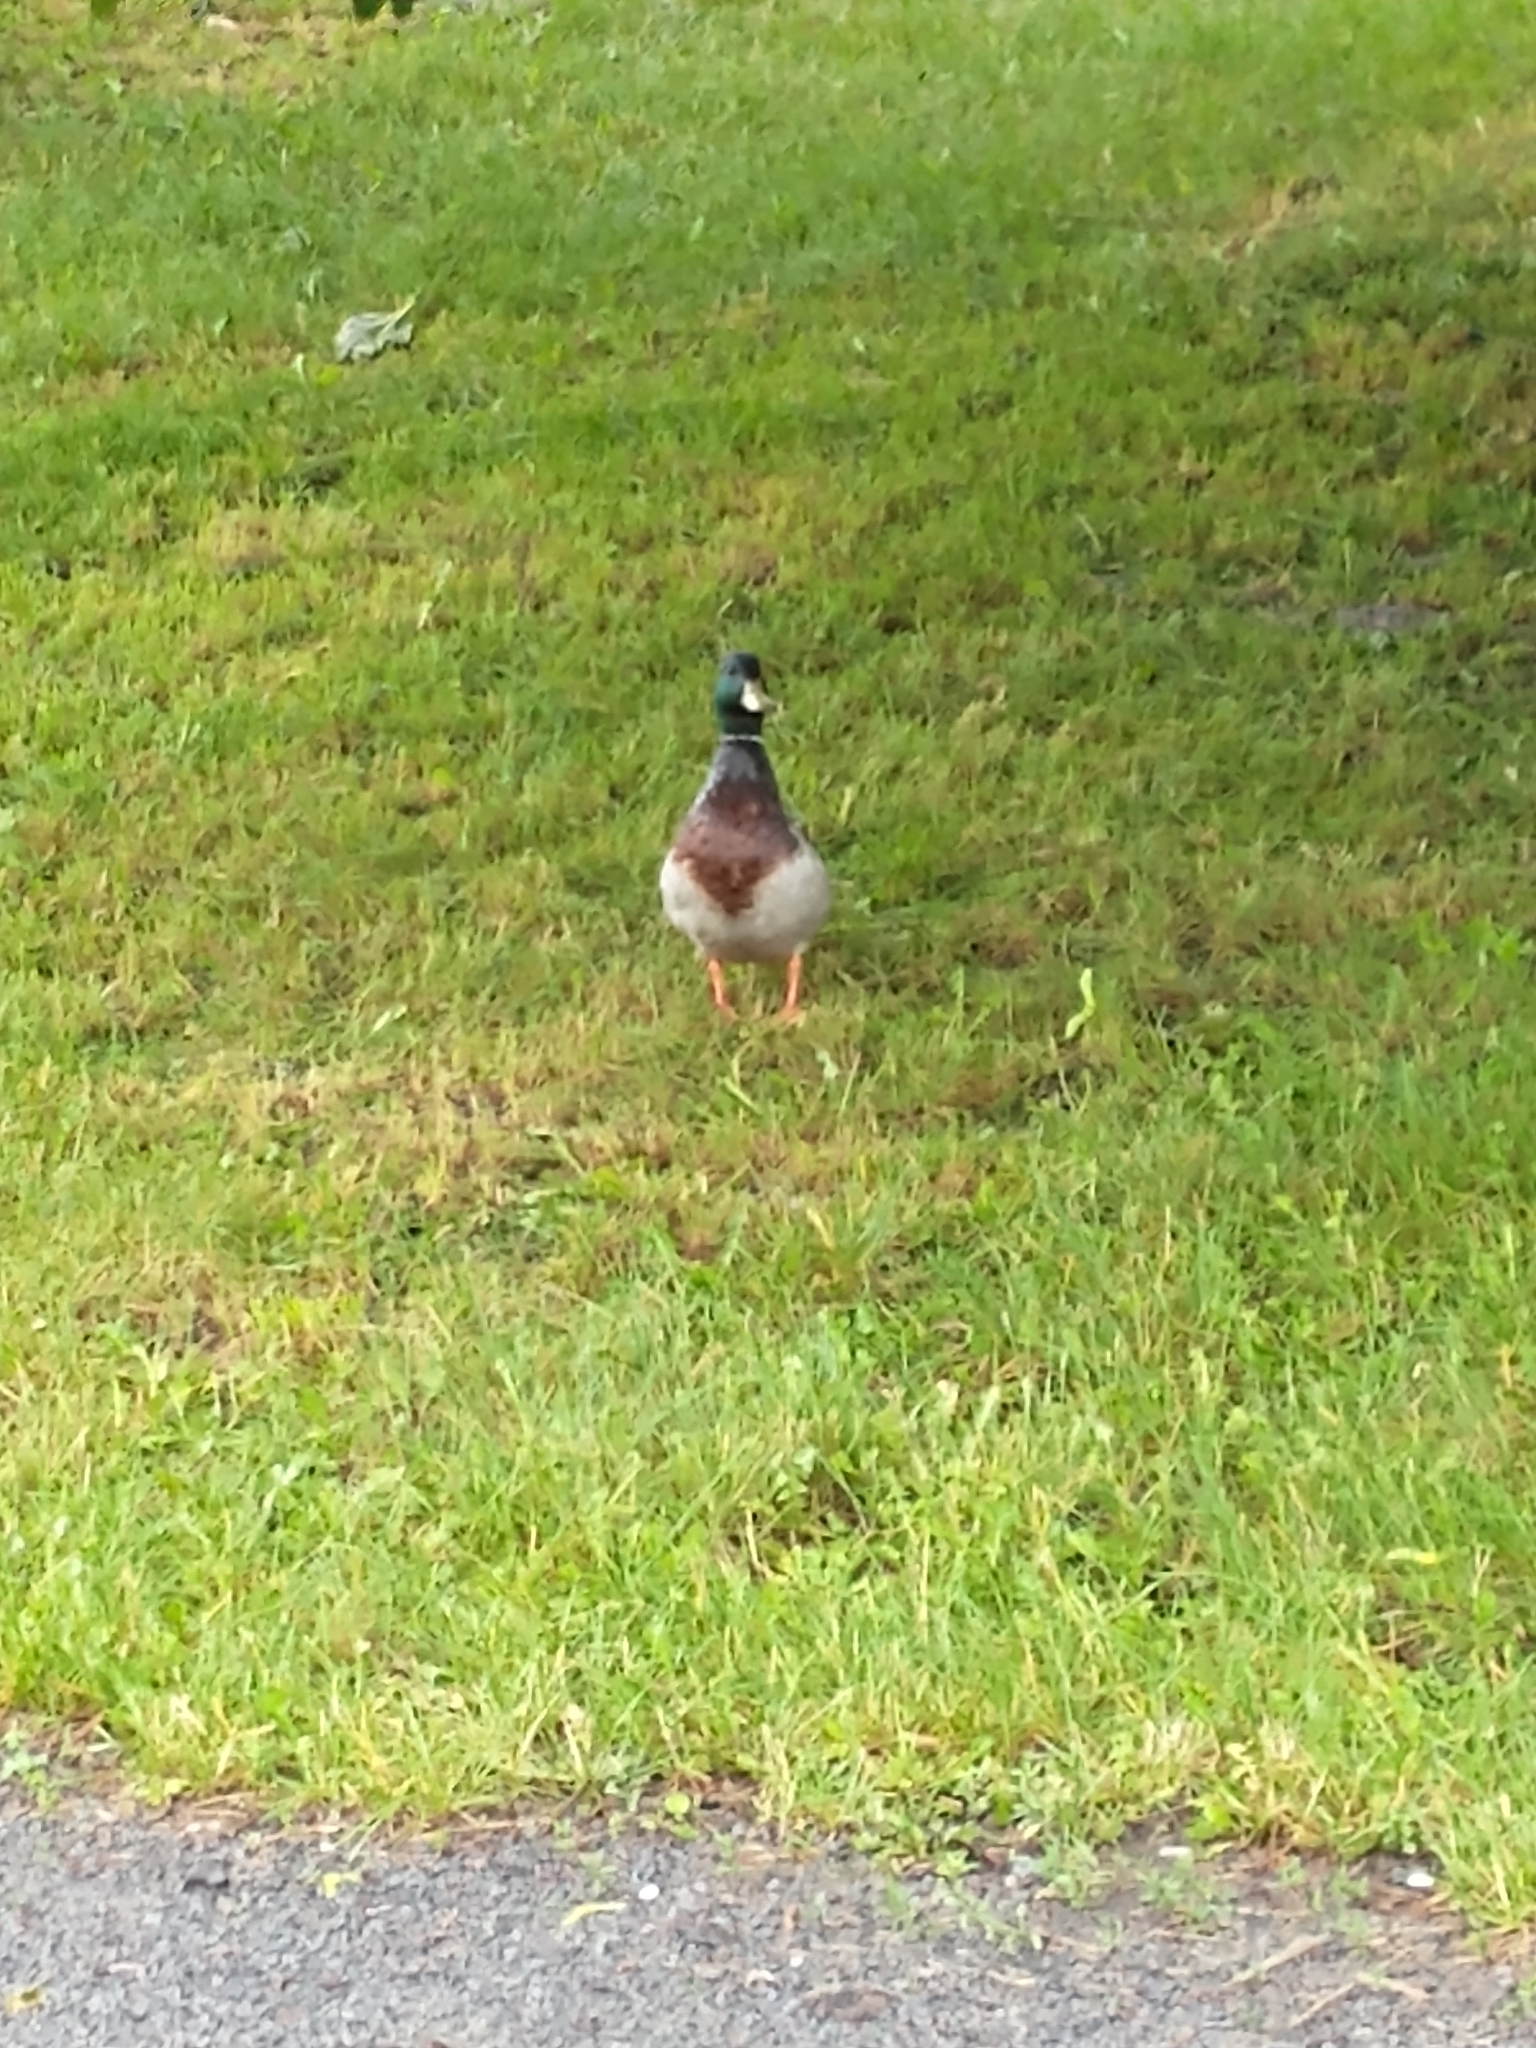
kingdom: Animalia
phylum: Chordata
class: Aves
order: Anseriformes
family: Anatidae
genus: Anas
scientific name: Anas platyrhynchos
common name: Mallard
